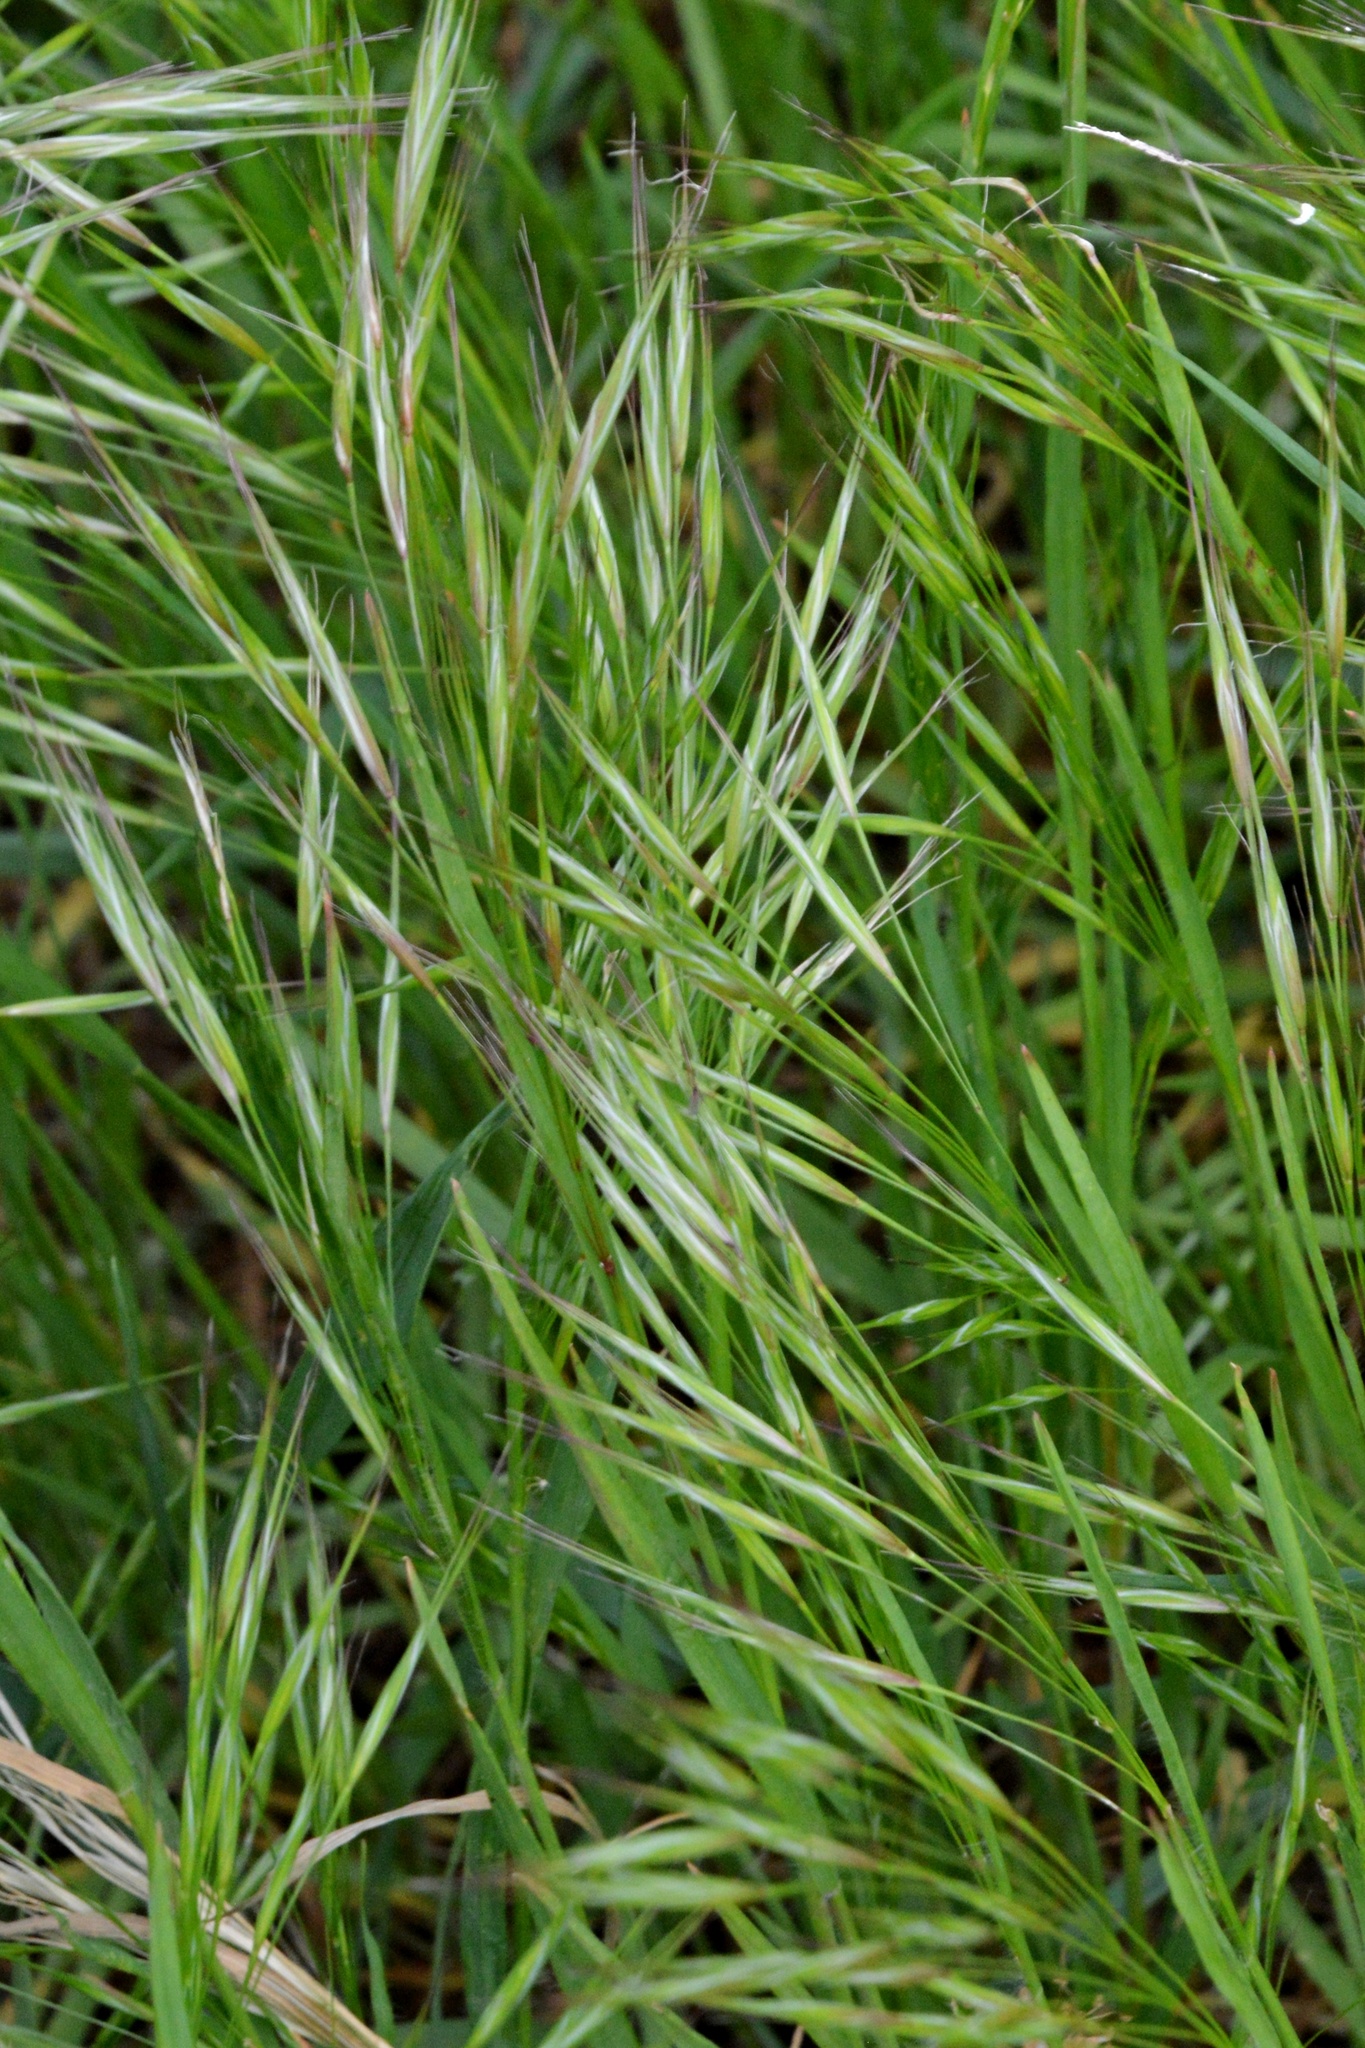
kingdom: Plantae
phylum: Tracheophyta
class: Liliopsida
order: Poales
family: Poaceae
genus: Bromus
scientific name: Bromus sterilis
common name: Poverty brome
